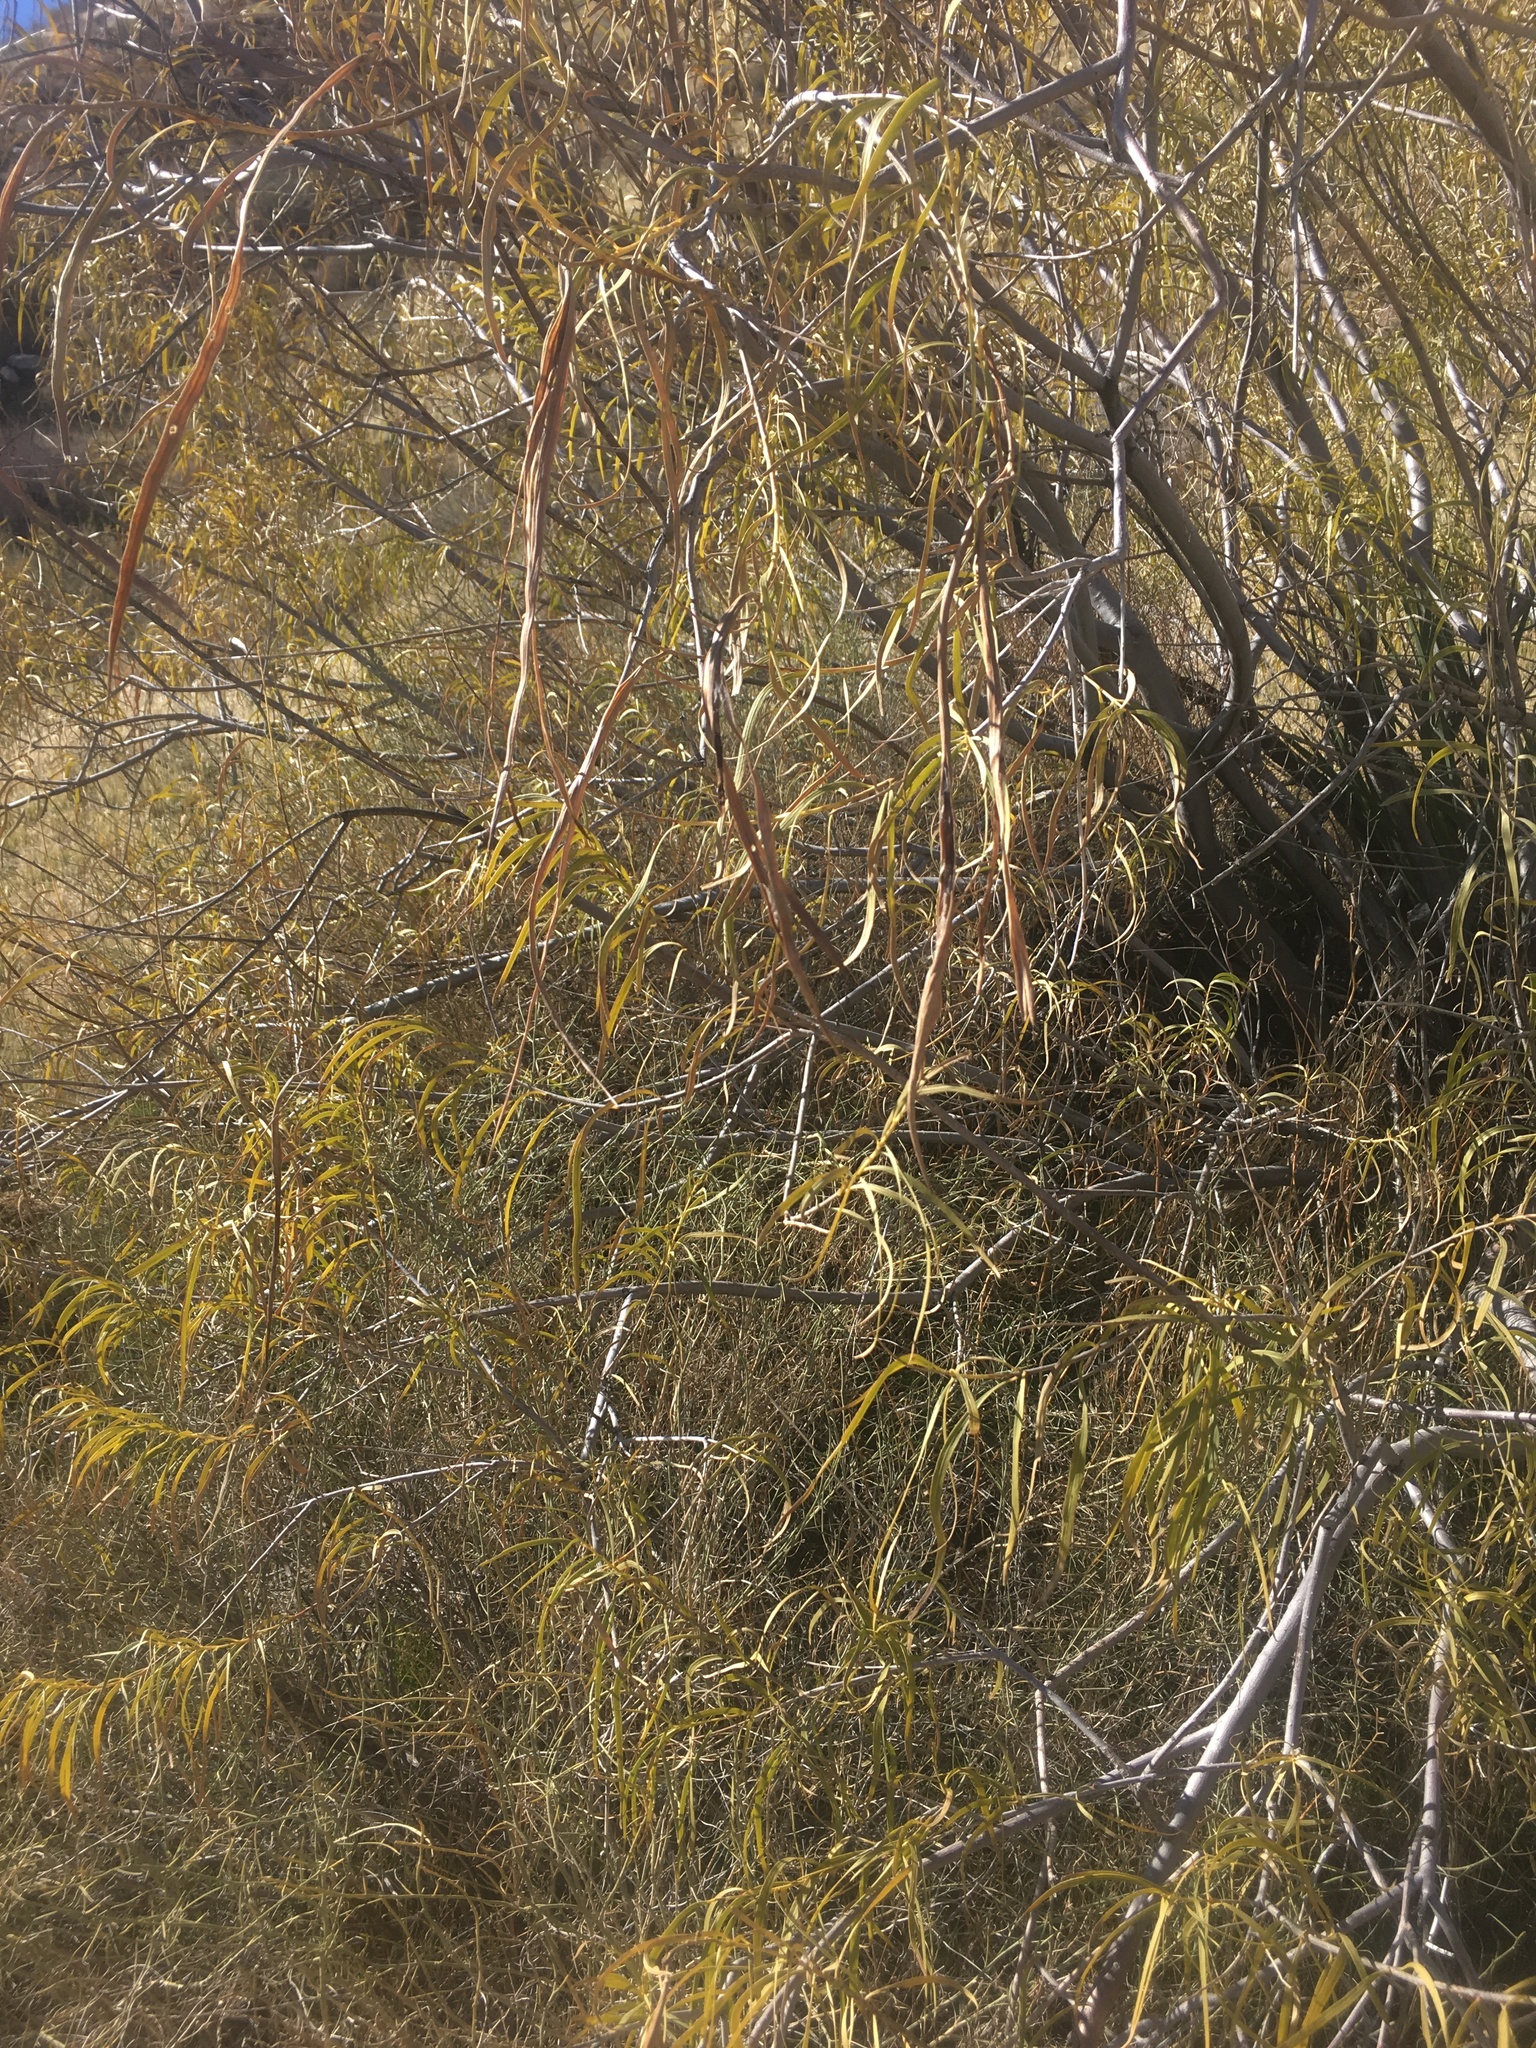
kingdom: Plantae
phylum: Tracheophyta
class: Magnoliopsida
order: Lamiales
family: Bignoniaceae
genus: Chilopsis
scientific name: Chilopsis linearis
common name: Desert-willow
